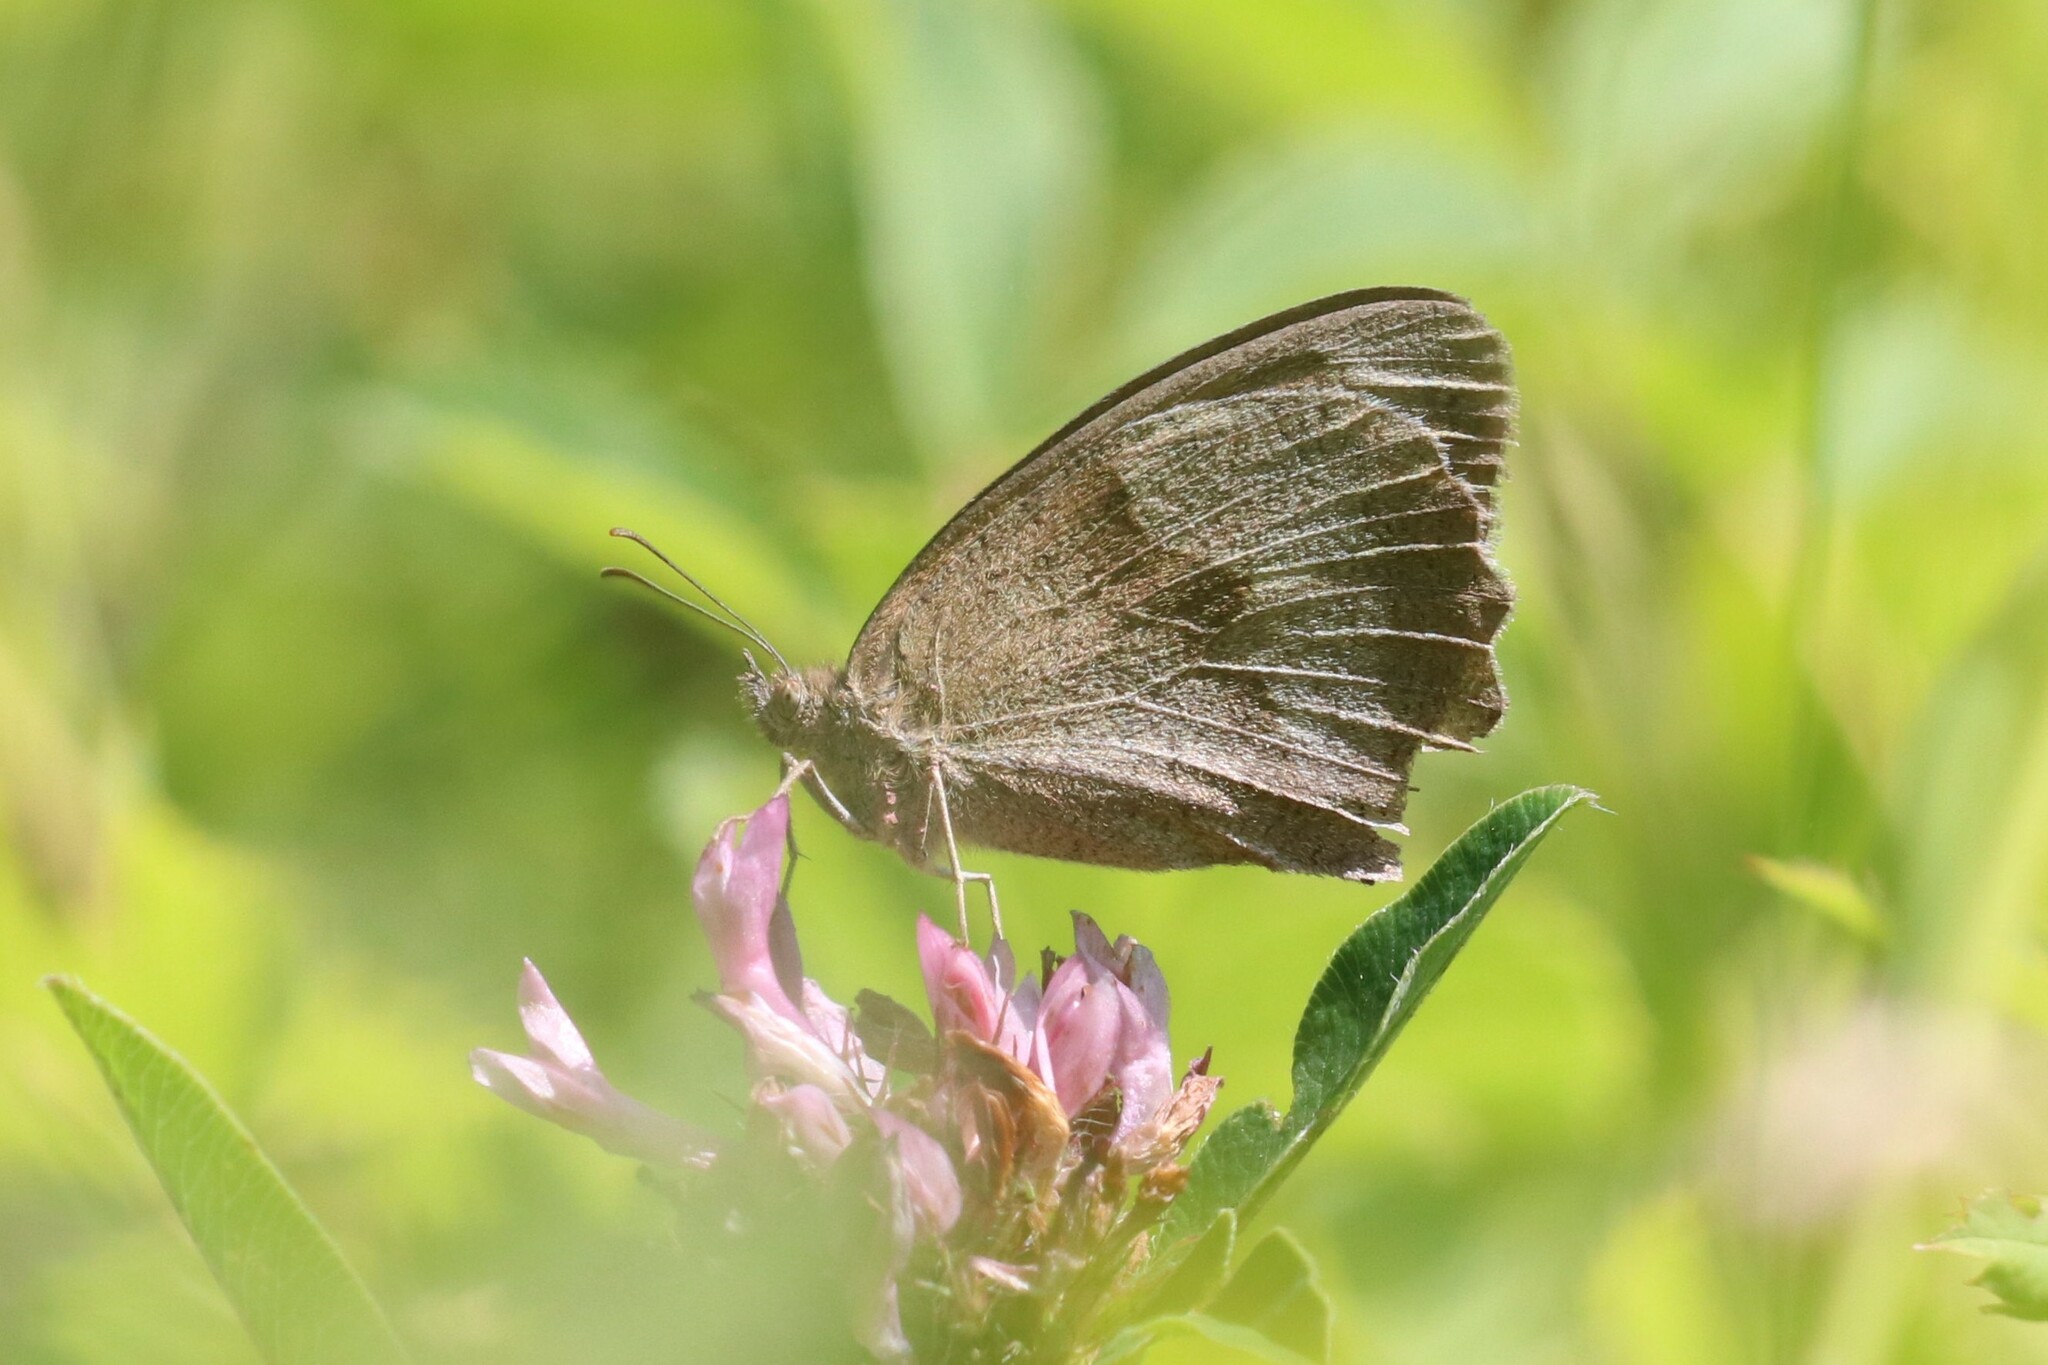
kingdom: Animalia
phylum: Arthropoda
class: Insecta
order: Lepidoptera
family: Nymphalidae
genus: Maniola
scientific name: Maniola jurtina
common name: Meadow brown
